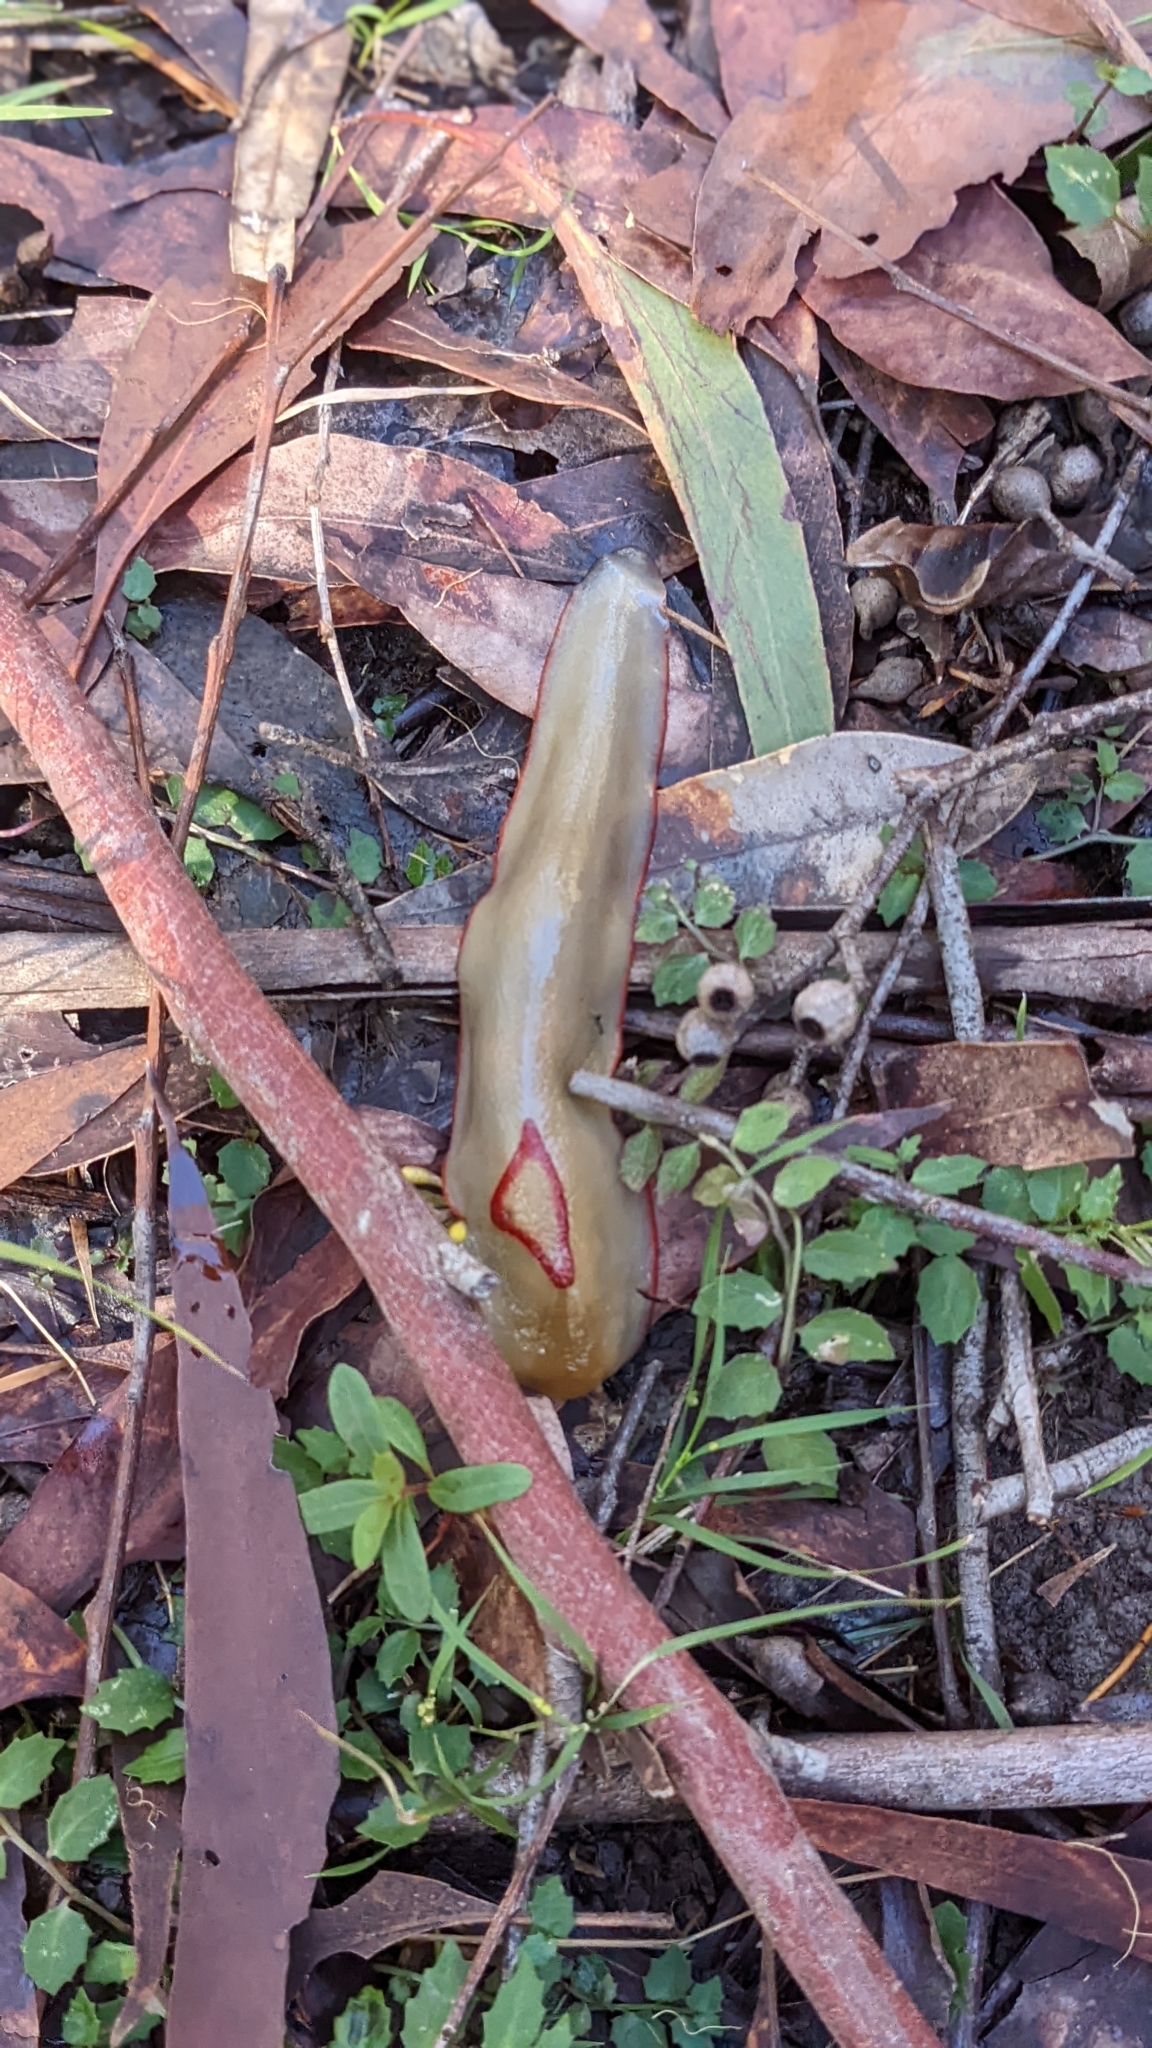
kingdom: Animalia
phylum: Mollusca
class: Gastropoda
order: Stylommatophora
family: Athoracophoridae
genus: Triboniophorus
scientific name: Triboniophorus graeffei
